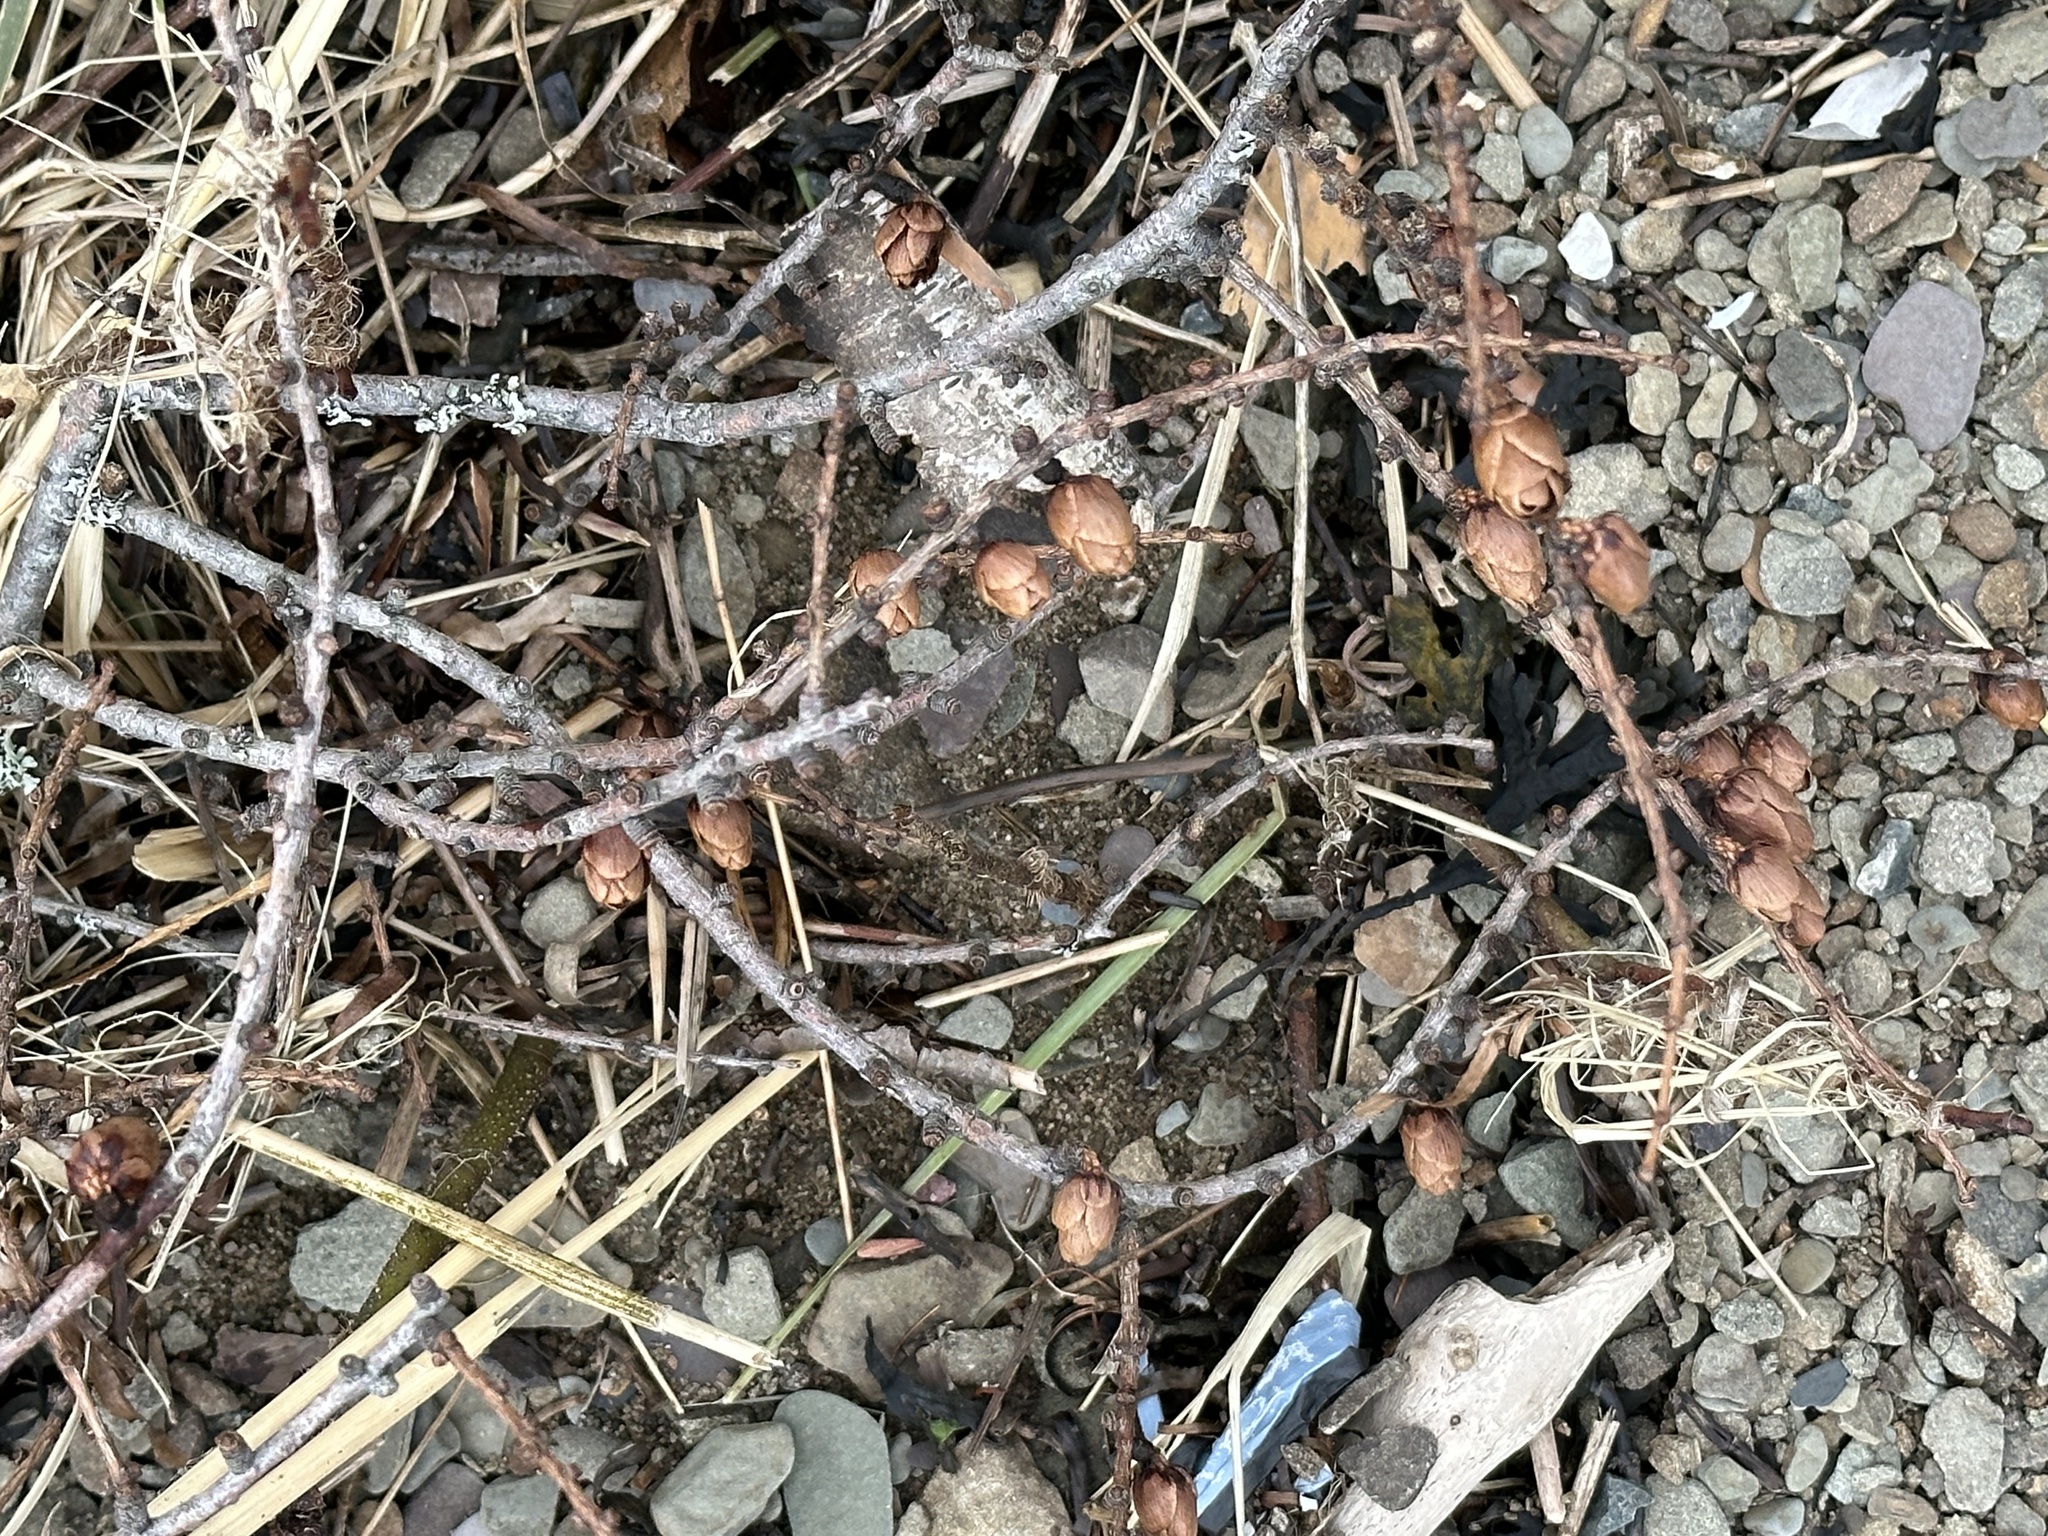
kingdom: Plantae
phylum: Tracheophyta
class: Pinopsida
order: Pinales
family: Pinaceae
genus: Larix
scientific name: Larix laricina
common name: American larch
